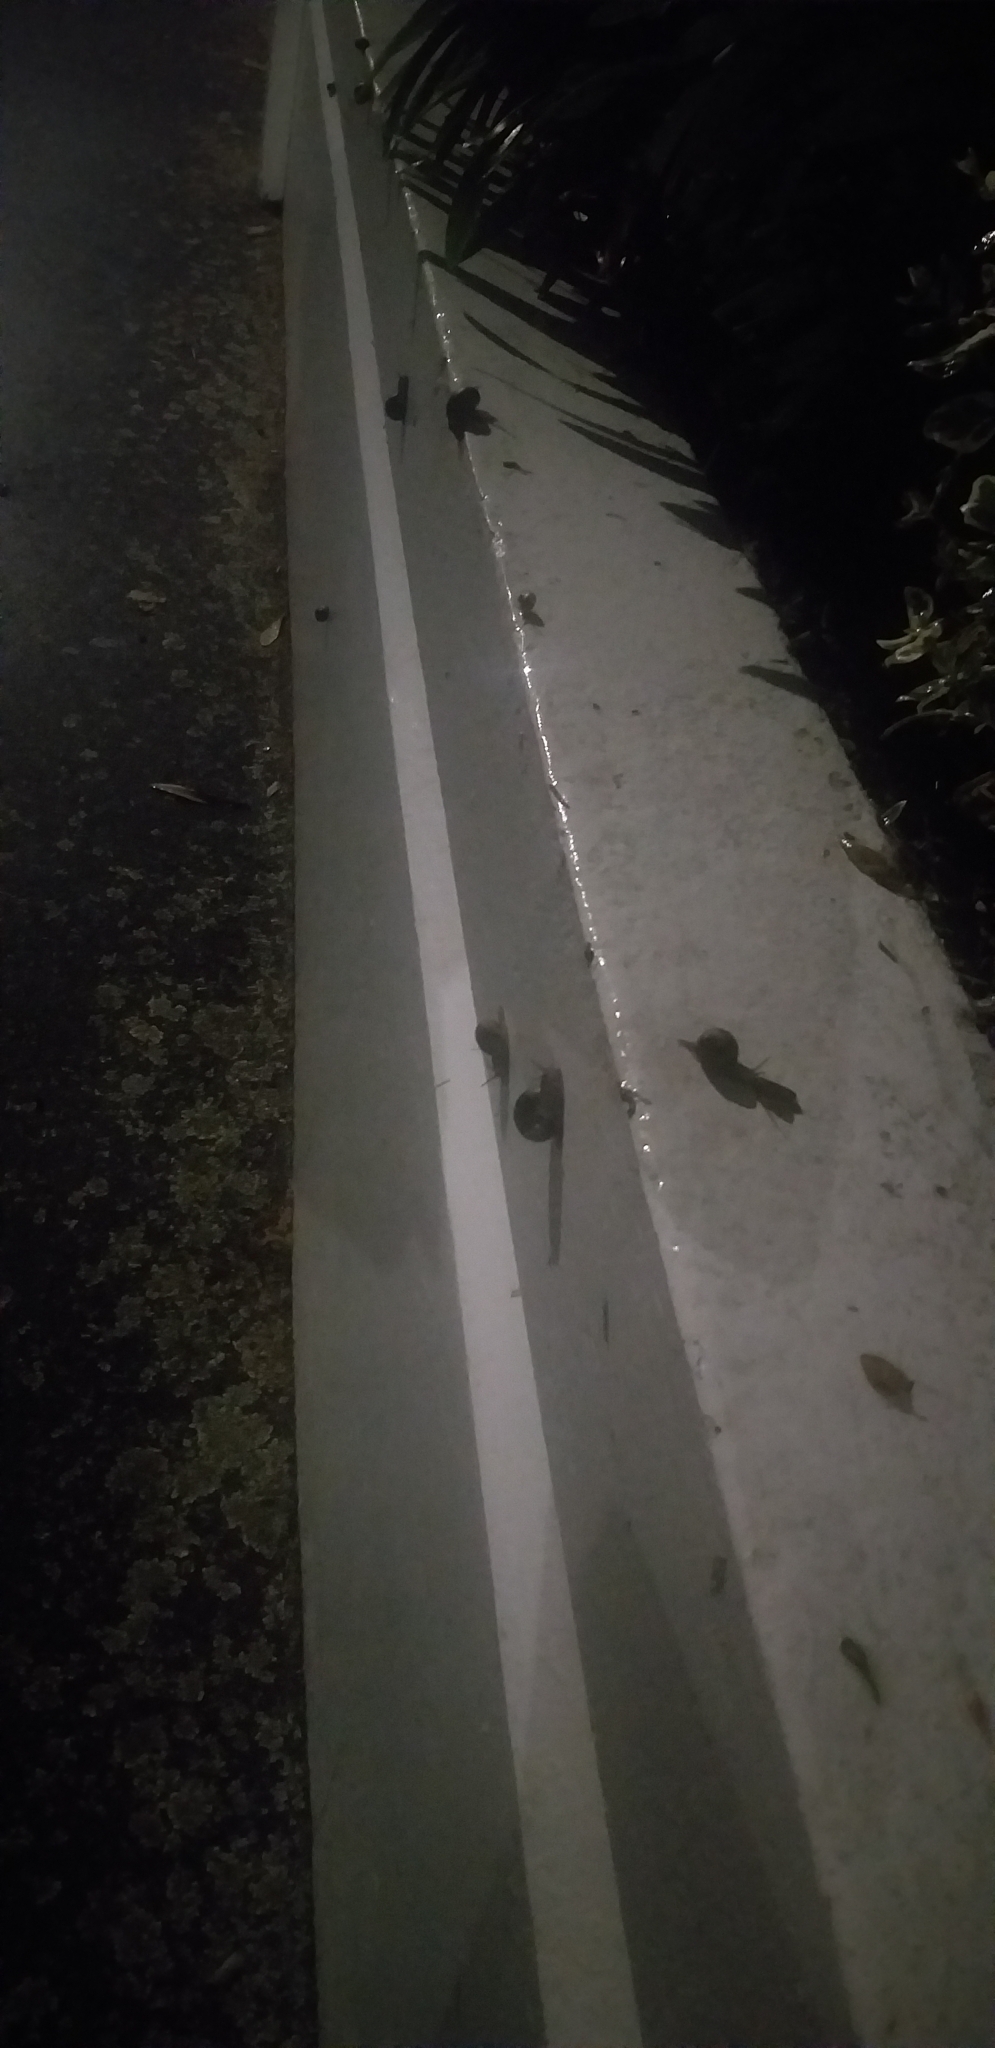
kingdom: Animalia
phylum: Mollusca
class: Gastropoda
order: Stylommatophora
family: Helicidae
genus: Cornu
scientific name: Cornu aspersum
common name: Brown garden snail
